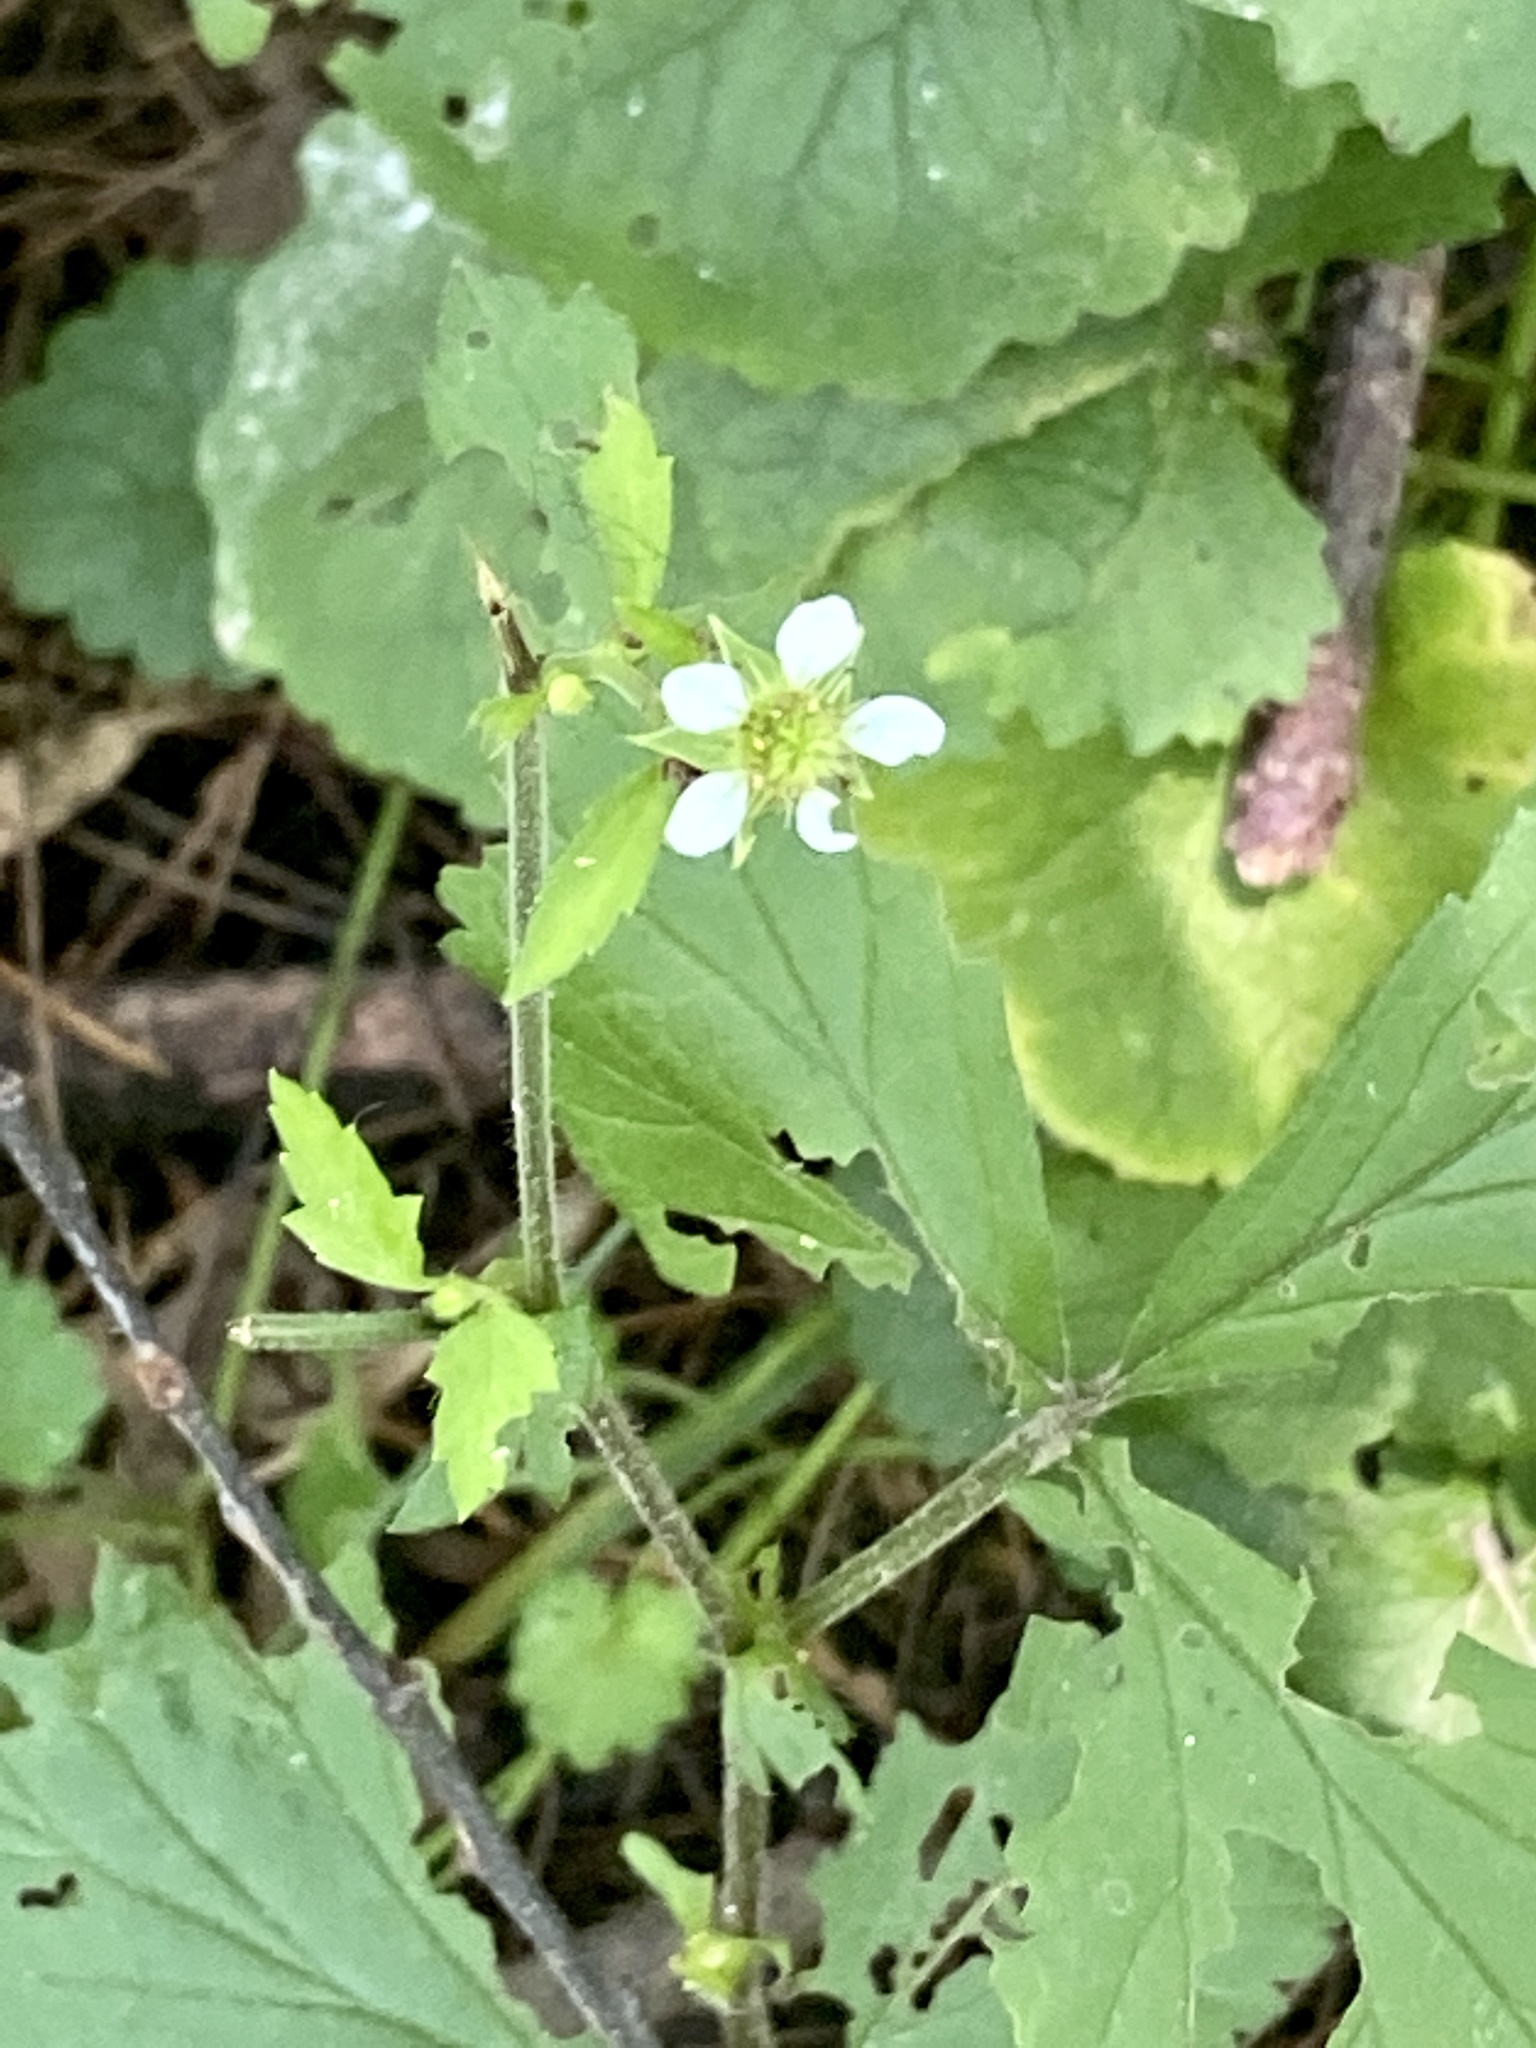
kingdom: Plantae
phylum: Tracheophyta
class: Magnoliopsida
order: Rosales
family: Rosaceae
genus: Geum
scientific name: Geum canadense
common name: White avens
